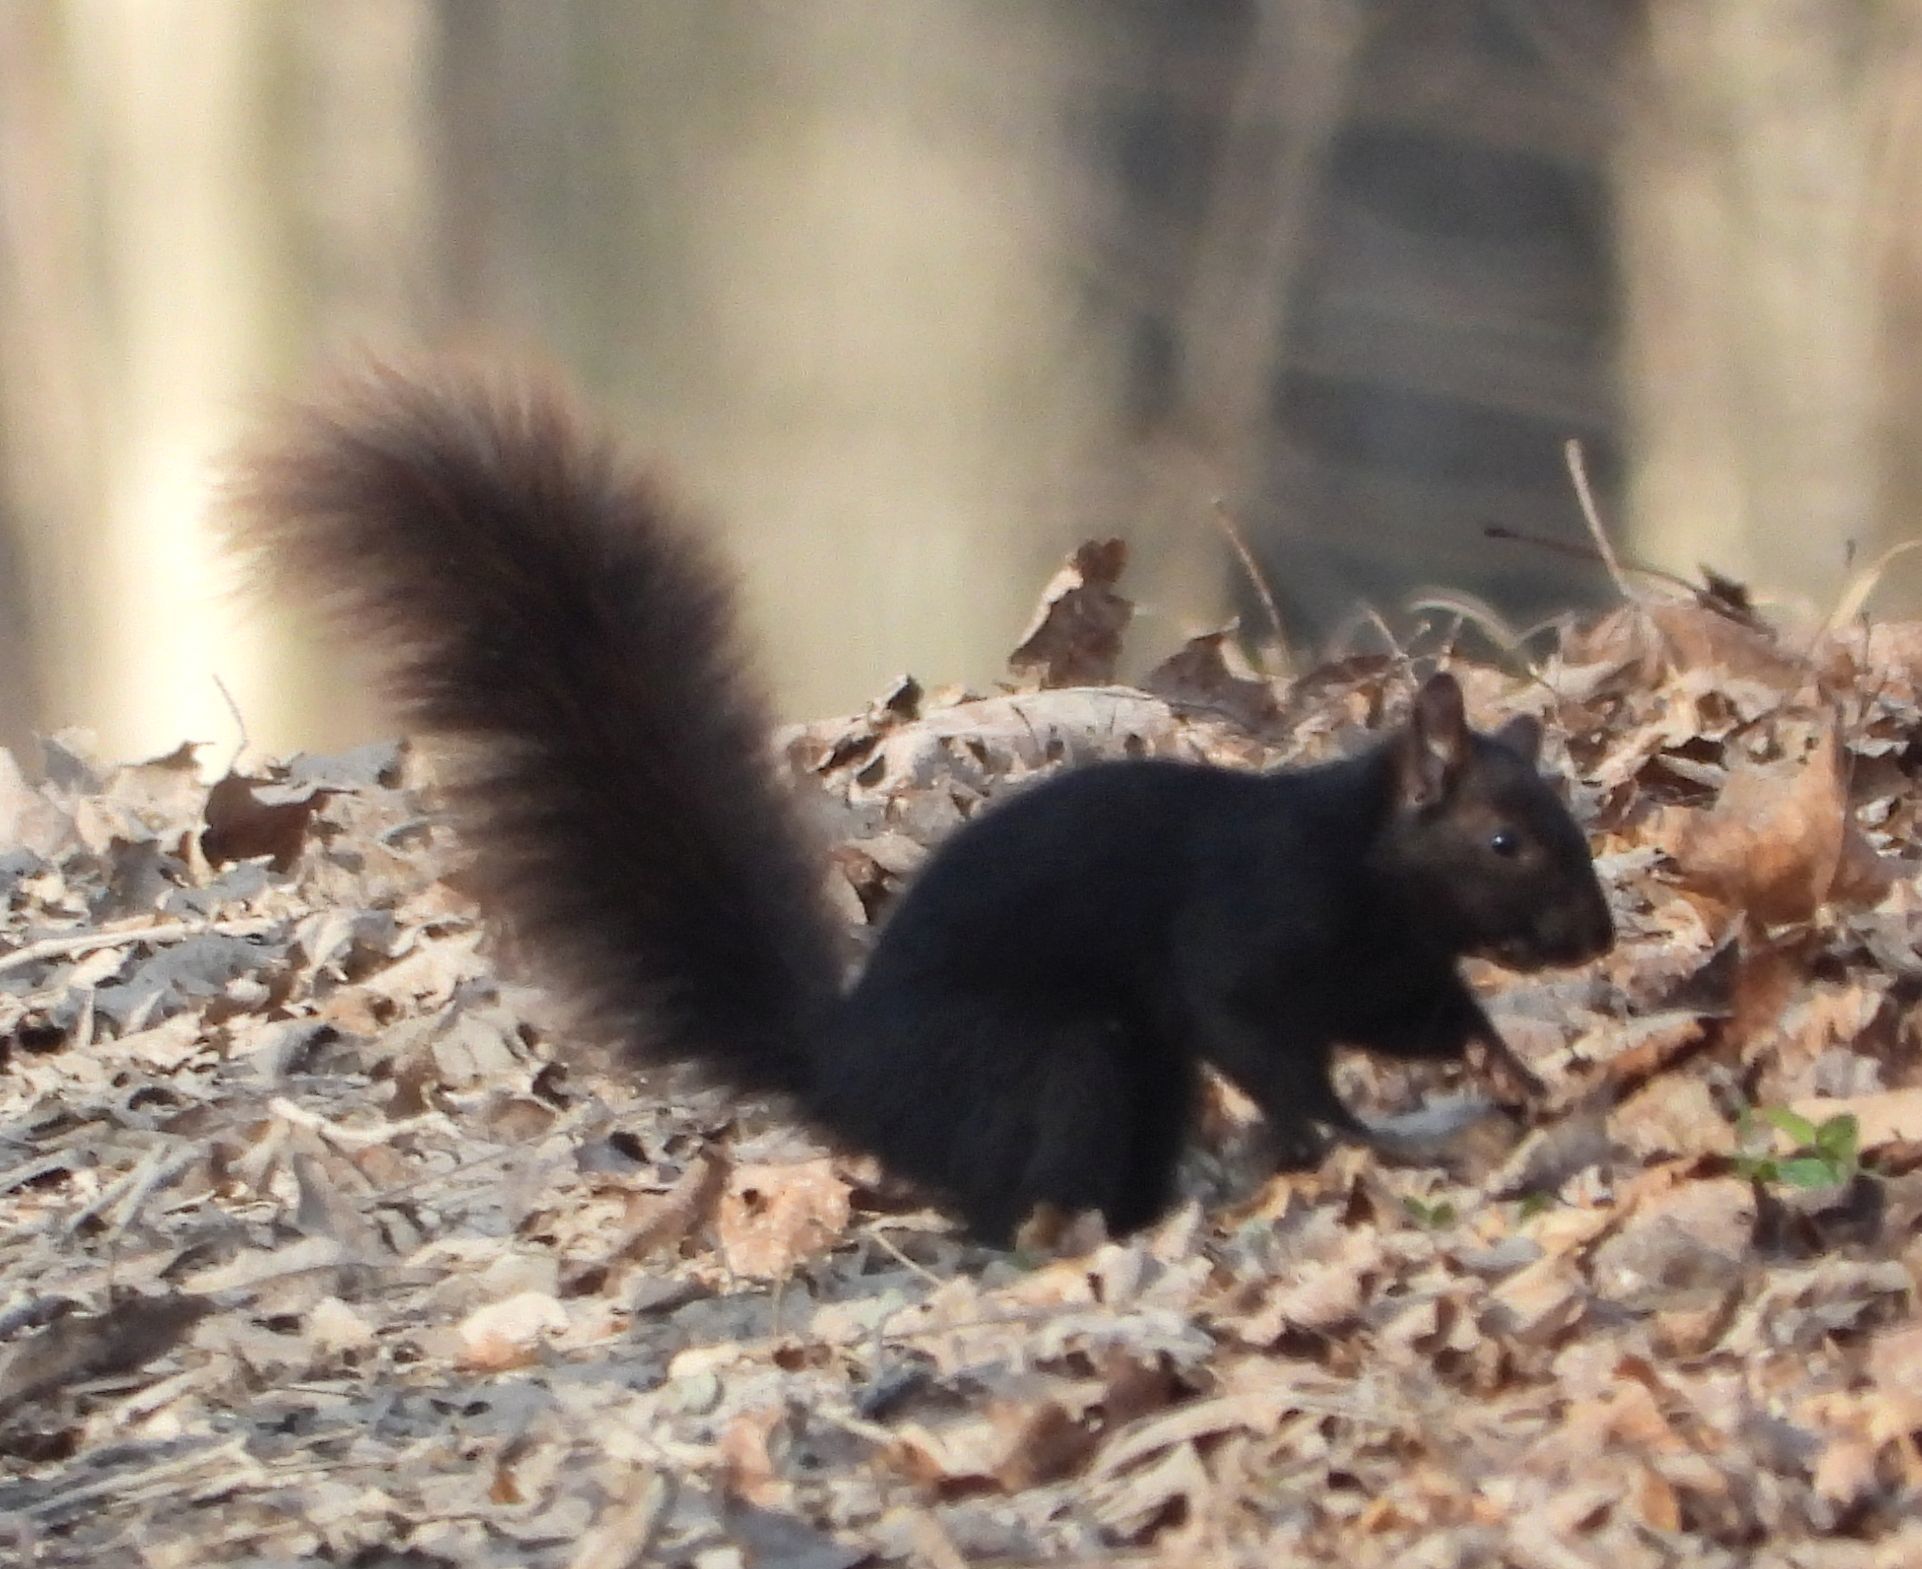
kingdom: Animalia
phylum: Chordata
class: Mammalia
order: Rodentia
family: Sciuridae
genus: Sciurus
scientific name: Sciurus carolinensis
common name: Eastern gray squirrel
